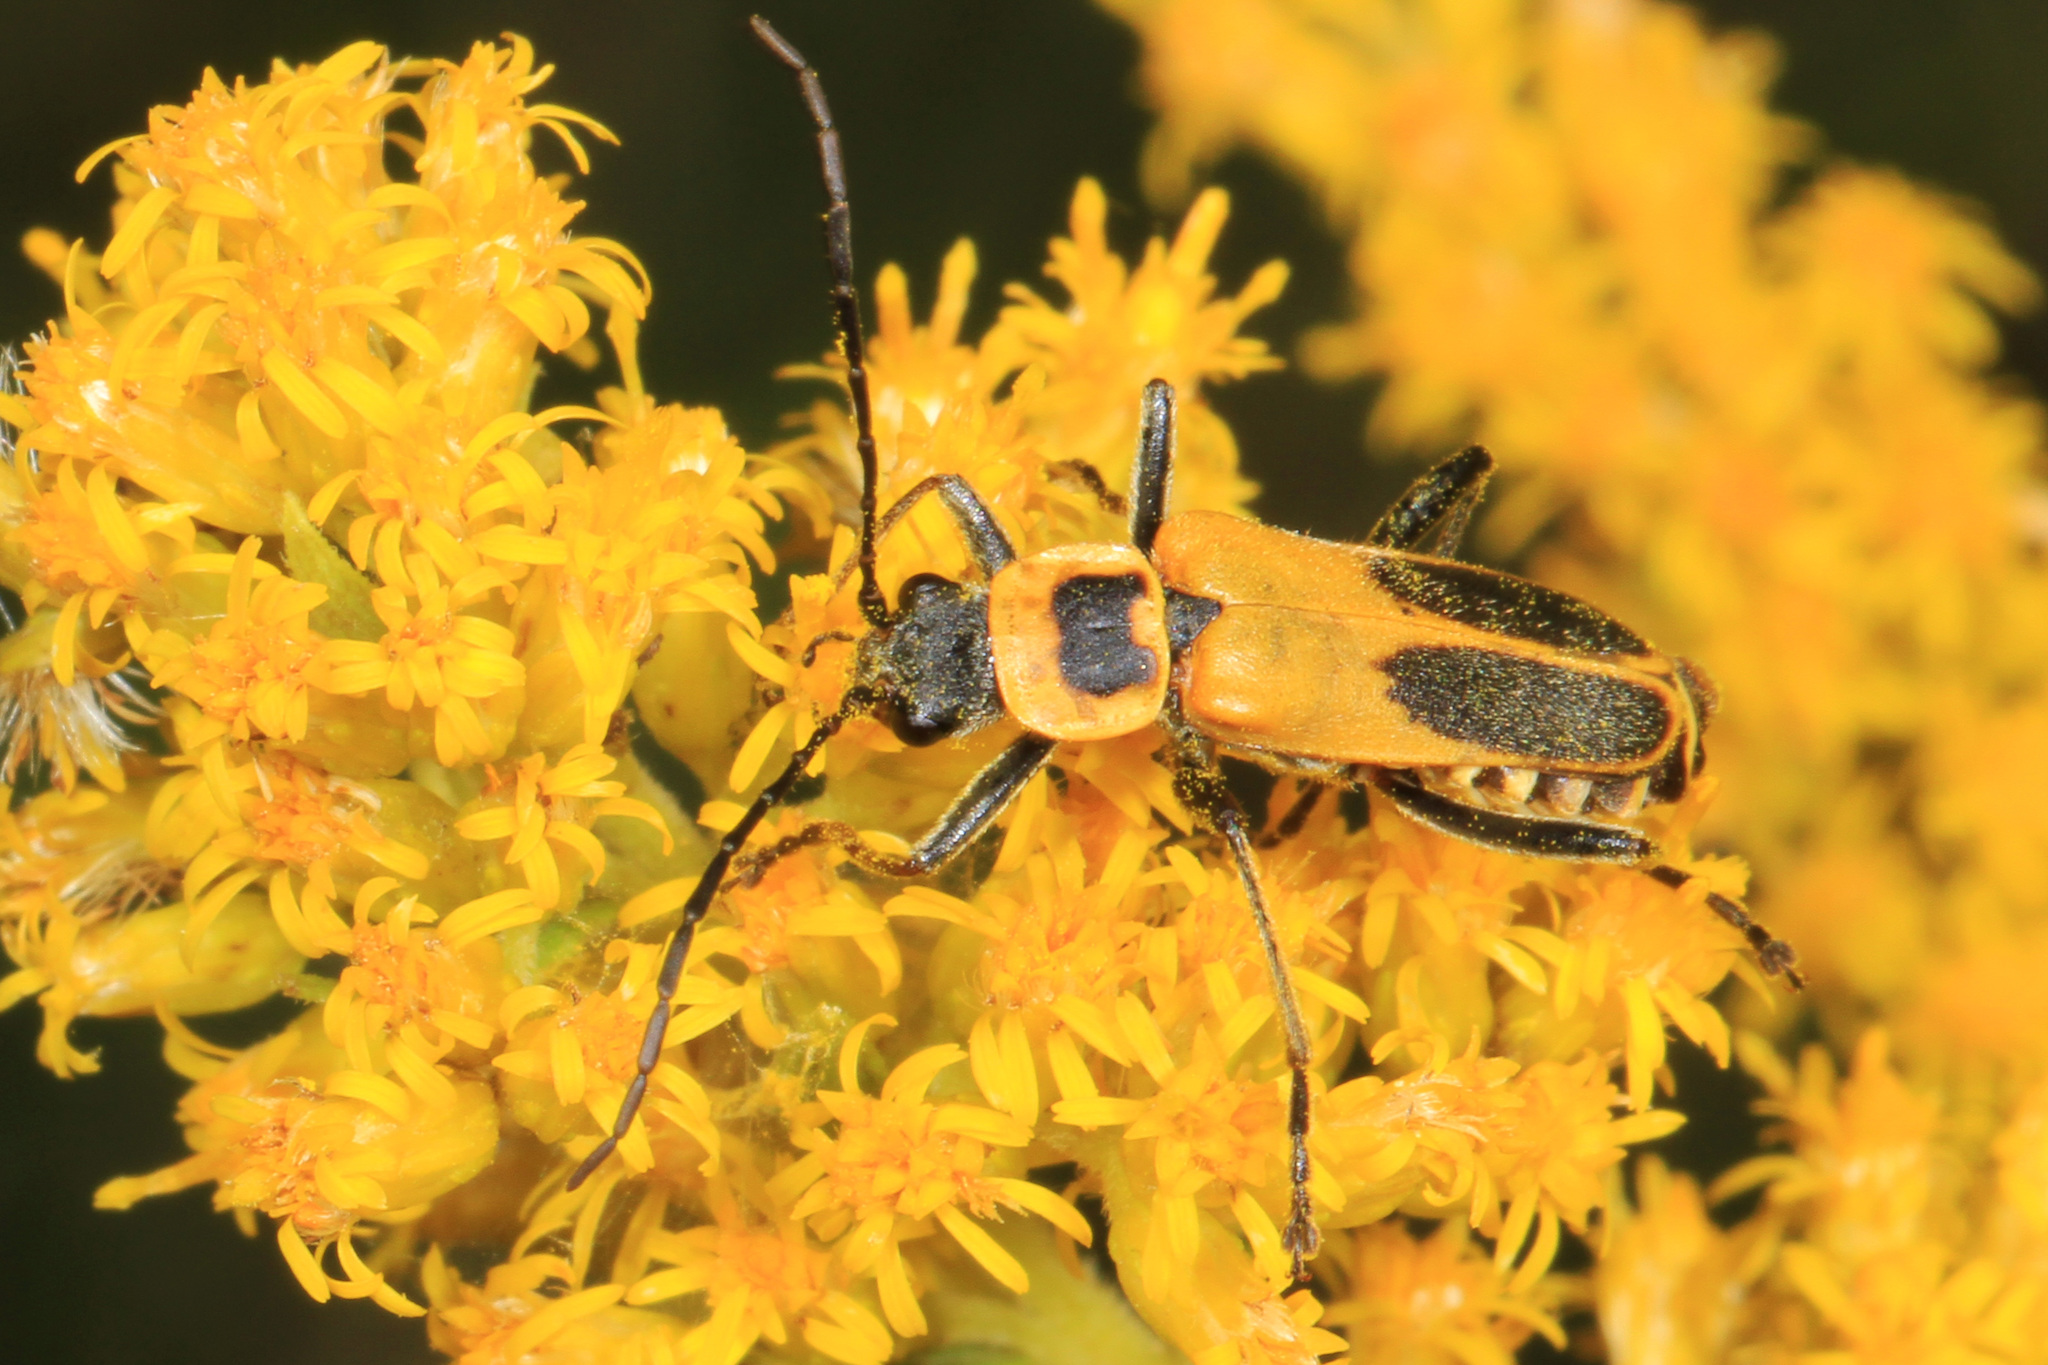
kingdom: Animalia
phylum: Arthropoda
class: Insecta
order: Coleoptera
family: Cantharidae
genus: Chauliognathus
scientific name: Chauliognathus pensylvanicus
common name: Goldenrod soldier beetle
